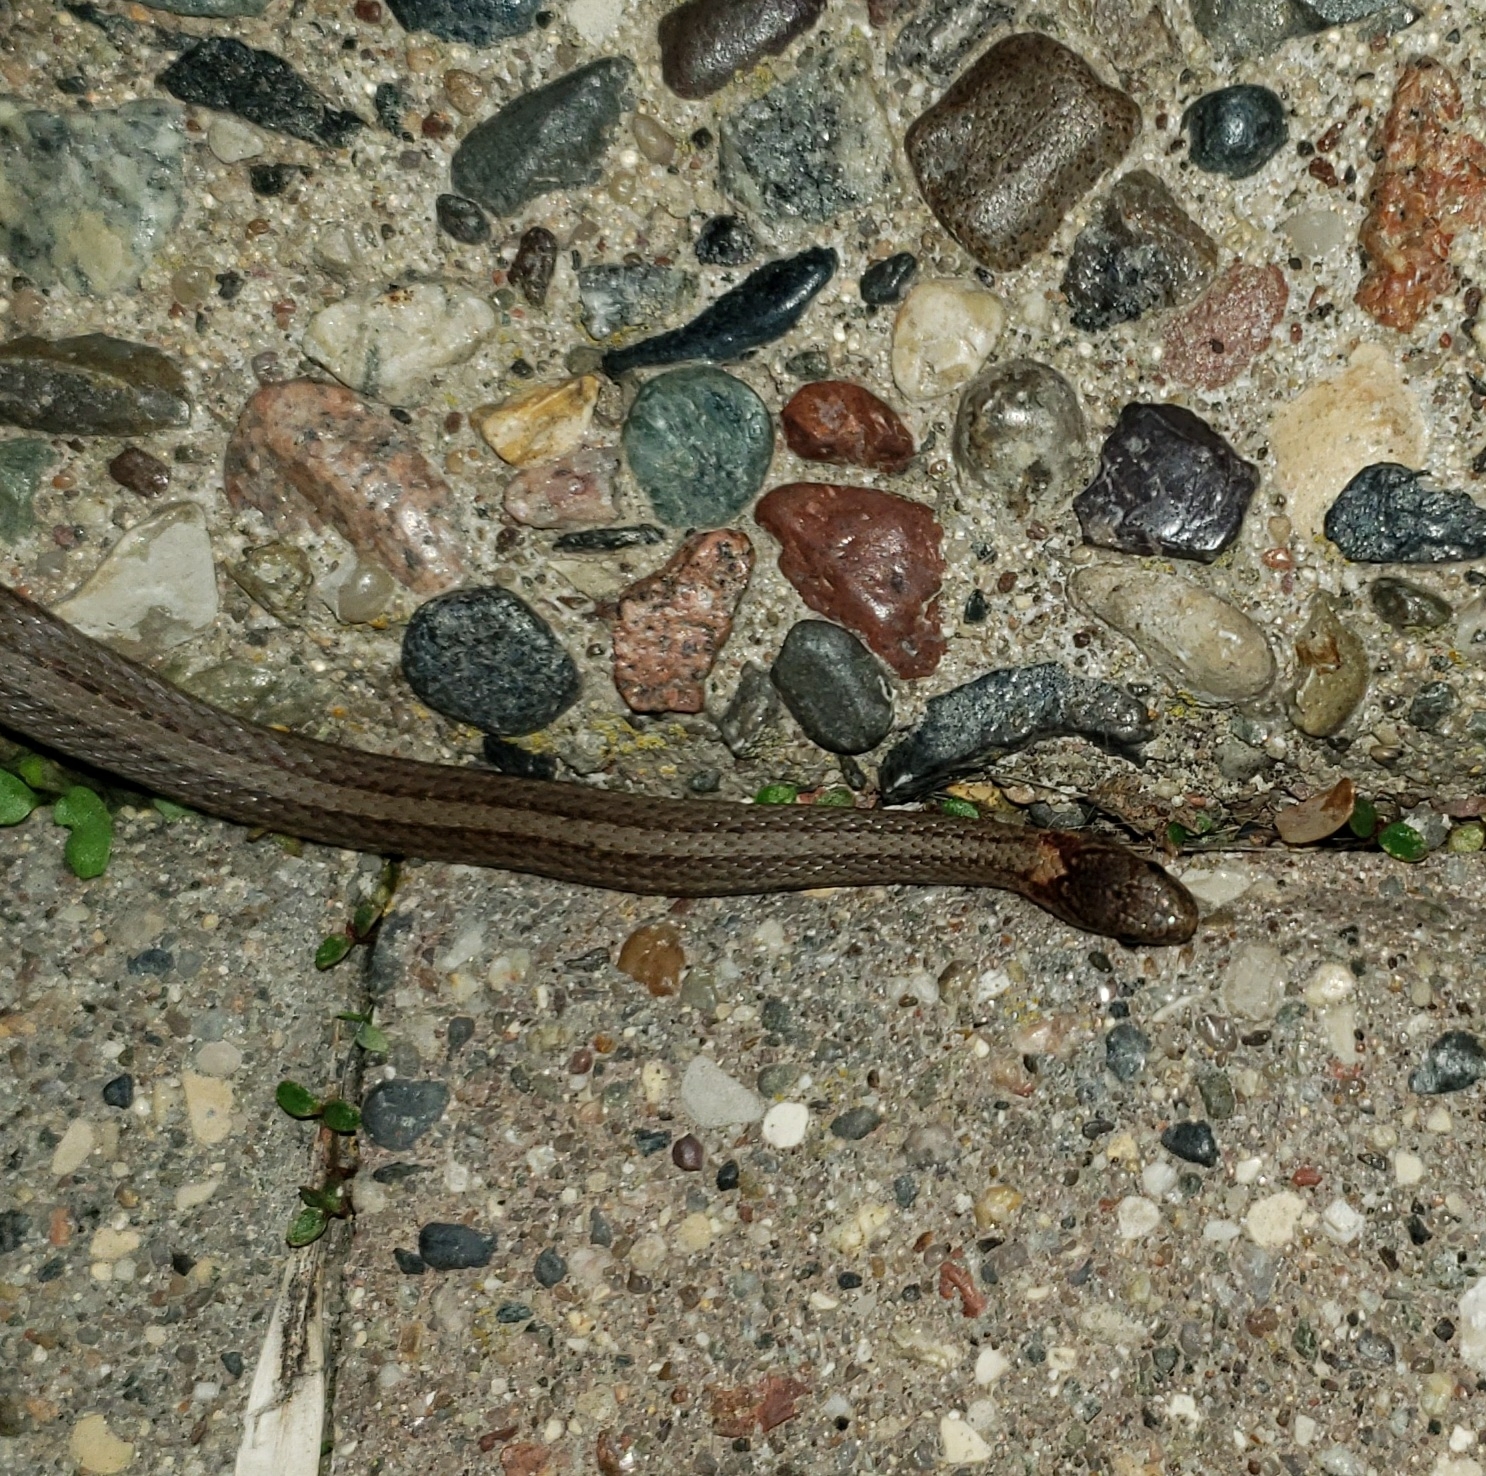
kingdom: Animalia
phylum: Chordata
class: Squamata
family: Colubridae
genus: Storeria
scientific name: Storeria occipitomaculata
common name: Redbelly snake
